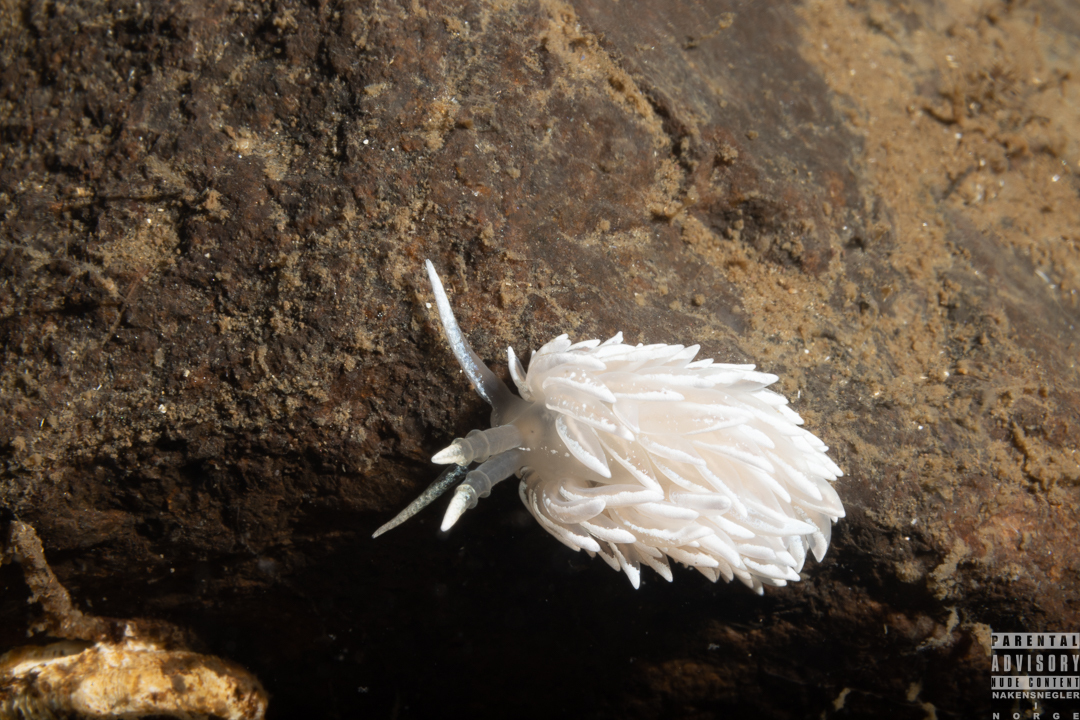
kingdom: Animalia
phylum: Mollusca
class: Gastropoda
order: Nudibranchia
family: Facelinidae
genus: Favorinus
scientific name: Favorinus blianus
